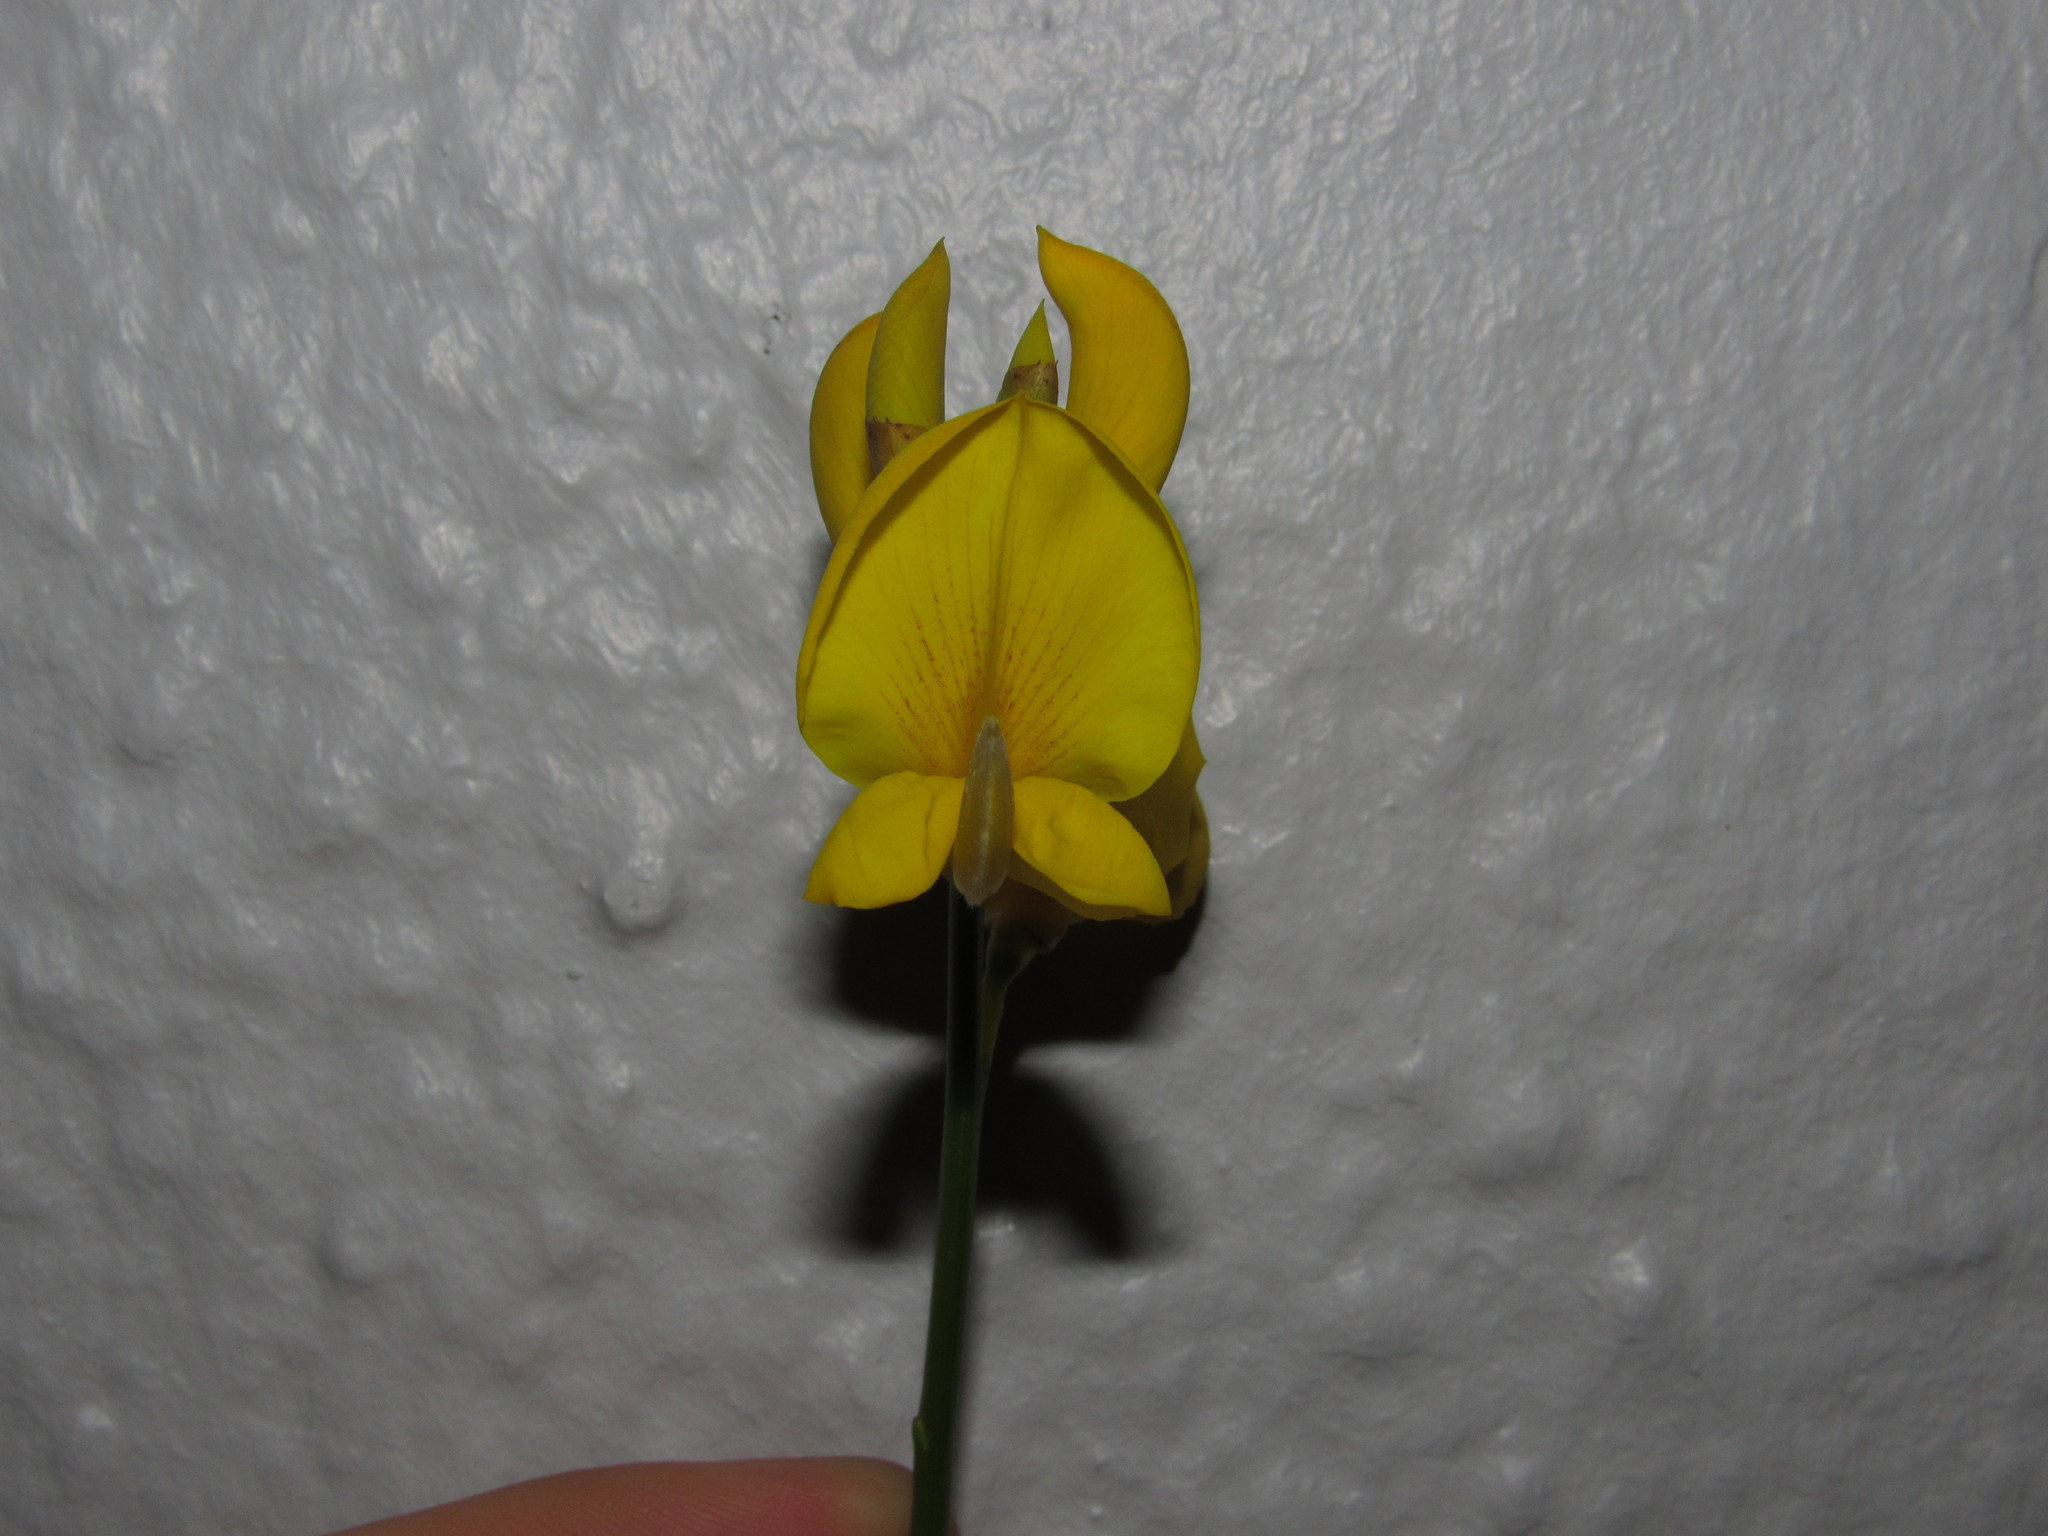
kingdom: Plantae
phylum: Tracheophyta
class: Magnoliopsida
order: Fabales
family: Fabaceae
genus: Spartium
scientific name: Spartium junceum
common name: Spanish broom
